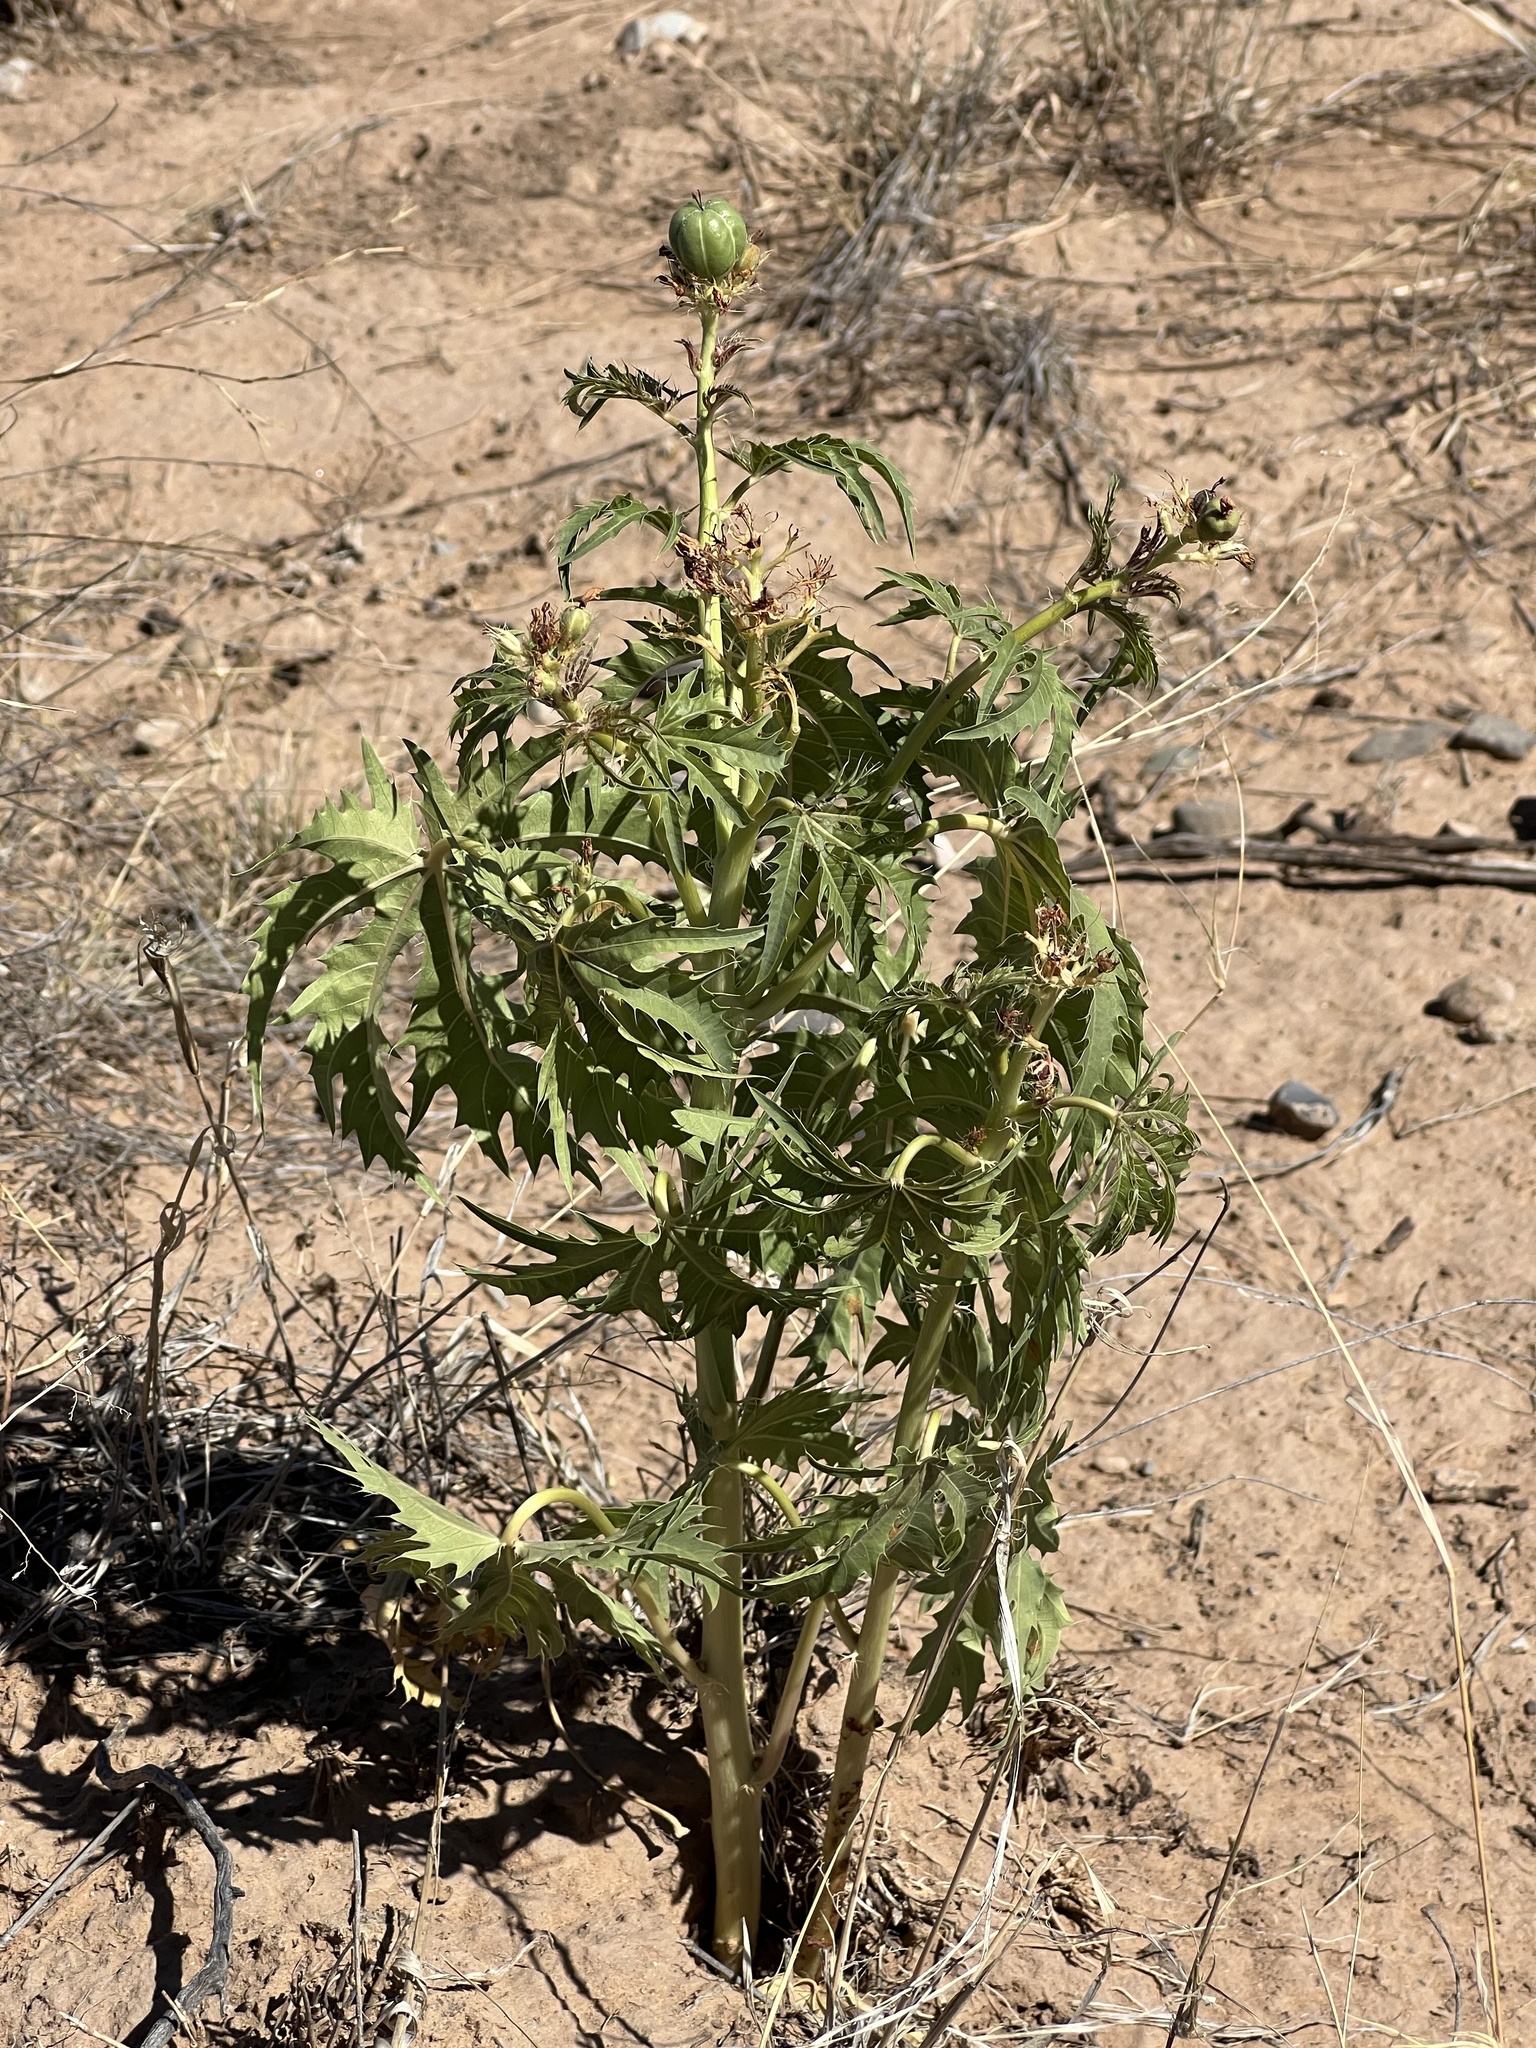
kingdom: Plantae
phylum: Tracheophyta
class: Magnoliopsida
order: Malpighiales
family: Euphorbiaceae
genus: Jatropha
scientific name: Jatropha macrorhiza
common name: Ragged nettlespurge
